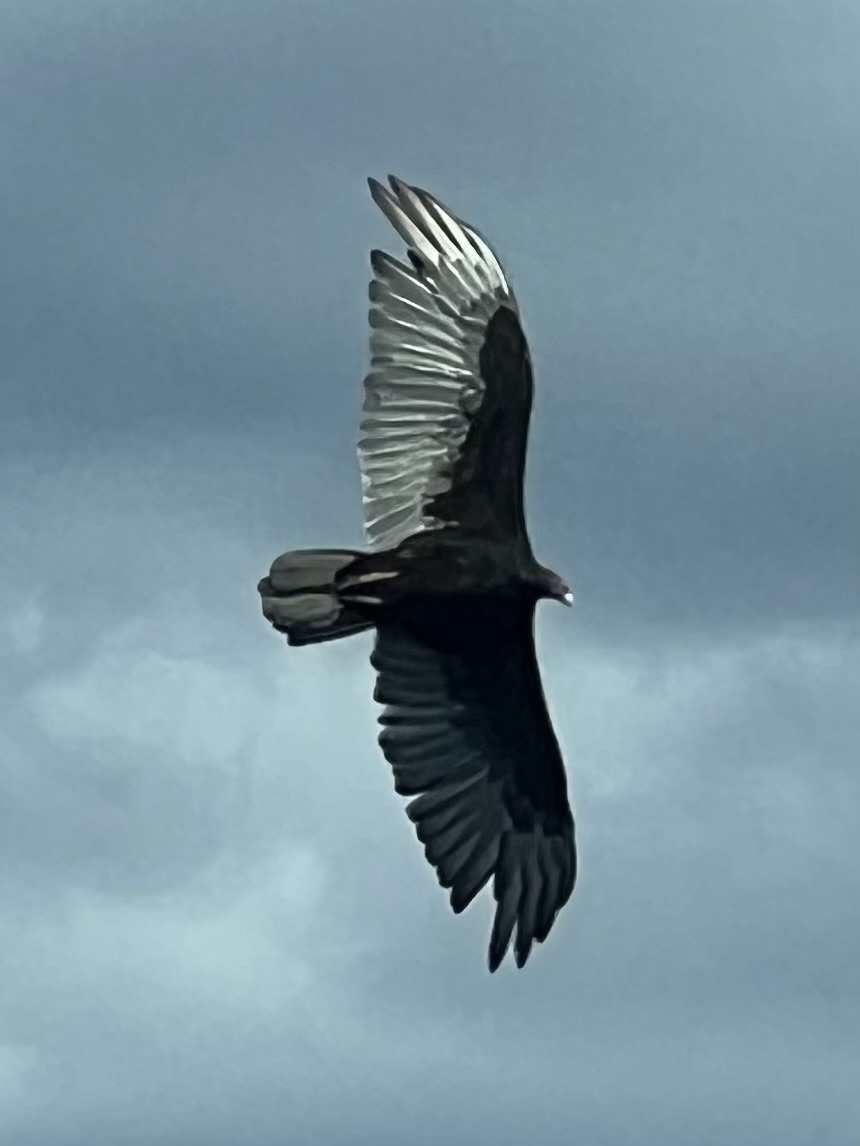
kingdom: Animalia
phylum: Chordata
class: Aves
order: Accipitriformes
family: Cathartidae
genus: Cathartes
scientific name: Cathartes aura
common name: Turkey vulture
